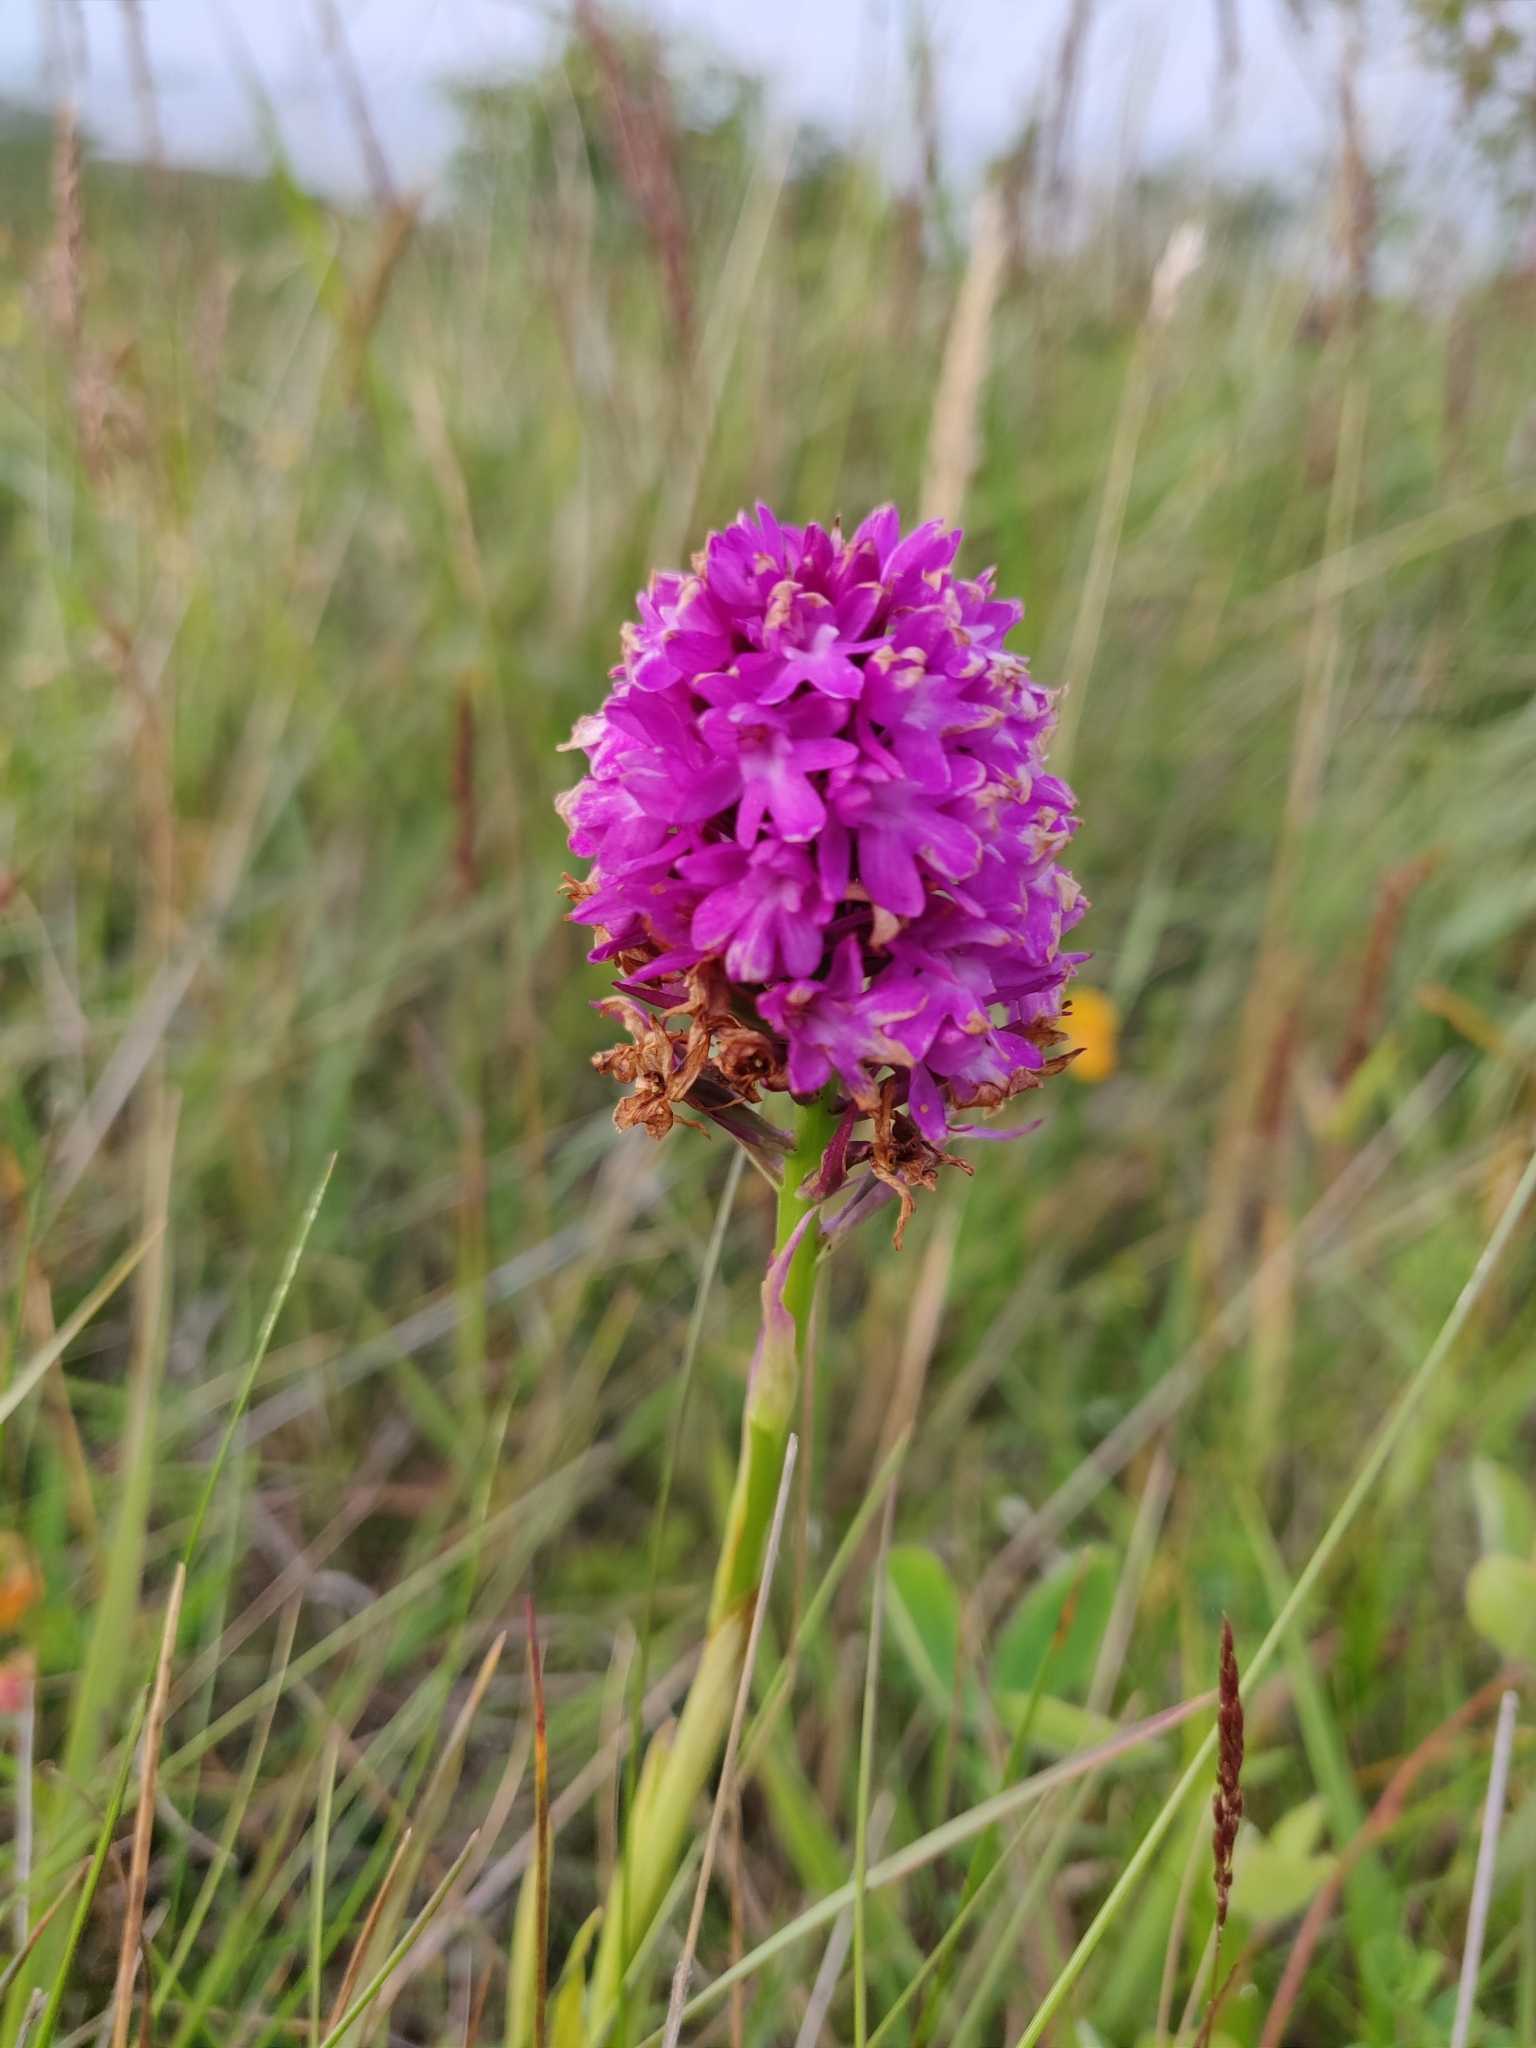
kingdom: Plantae
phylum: Tracheophyta
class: Liliopsida
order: Asparagales
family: Orchidaceae
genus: Anacamptis
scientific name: Anacamptis pyramidalis
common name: Pyramidal orchid
